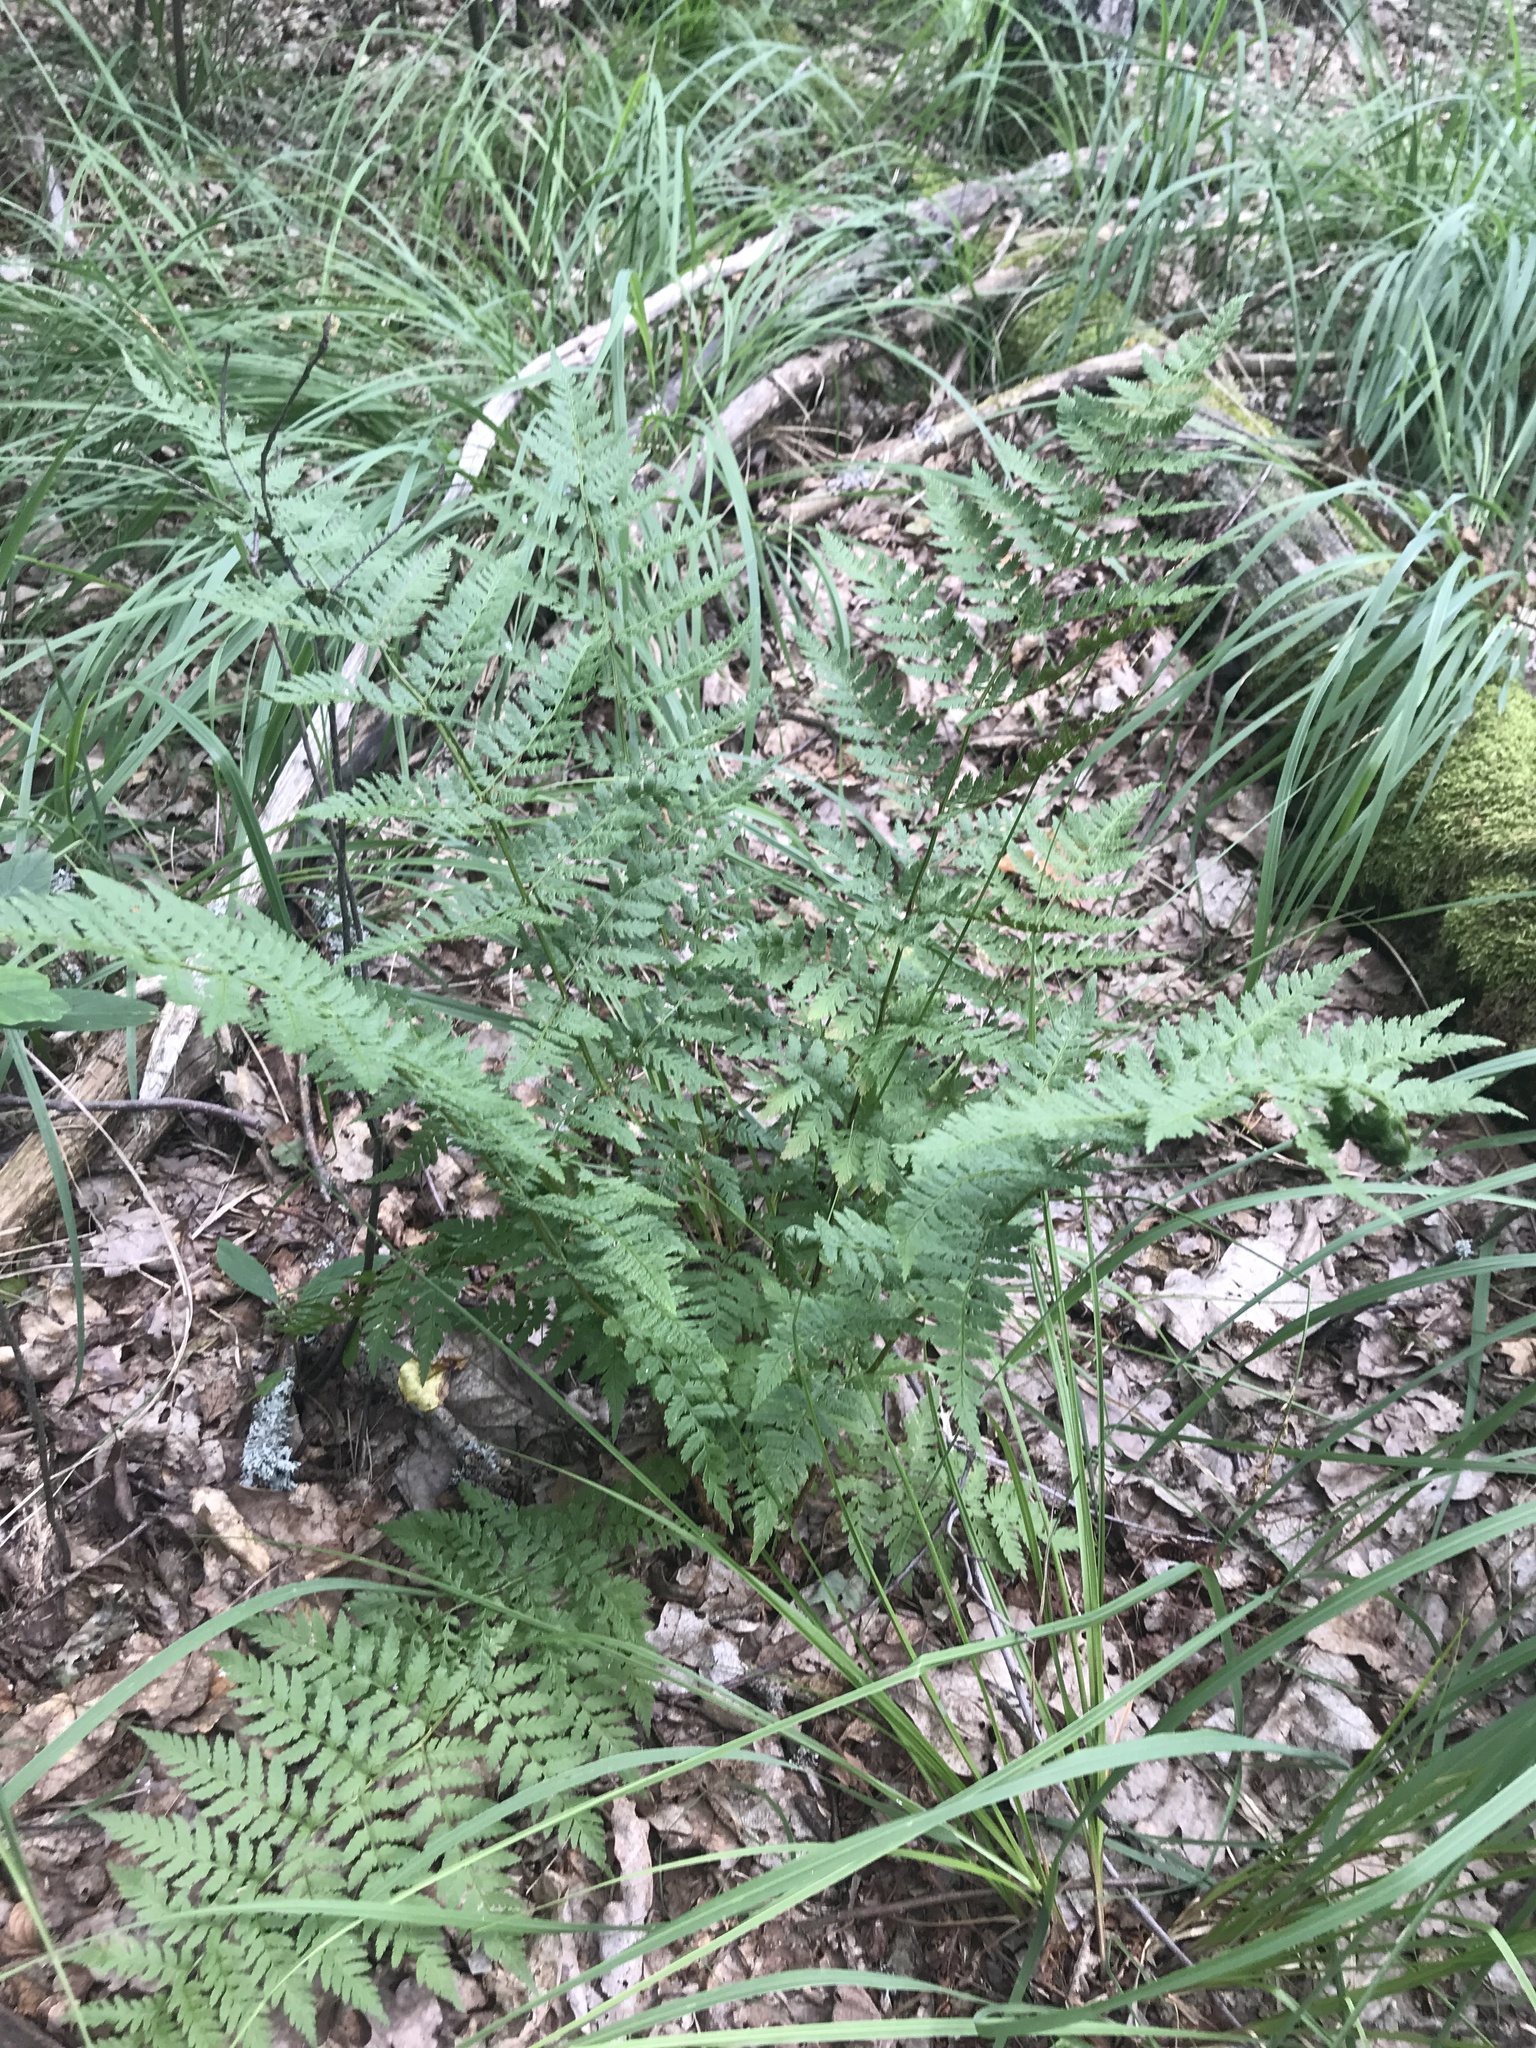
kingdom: Plantae
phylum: Tracheophyta
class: Polypodiopsida
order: Polypodiales
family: Dryopteridaceae
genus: Dryopteris
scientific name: Dryopteris carthusiana
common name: Narrow buckler-fern
